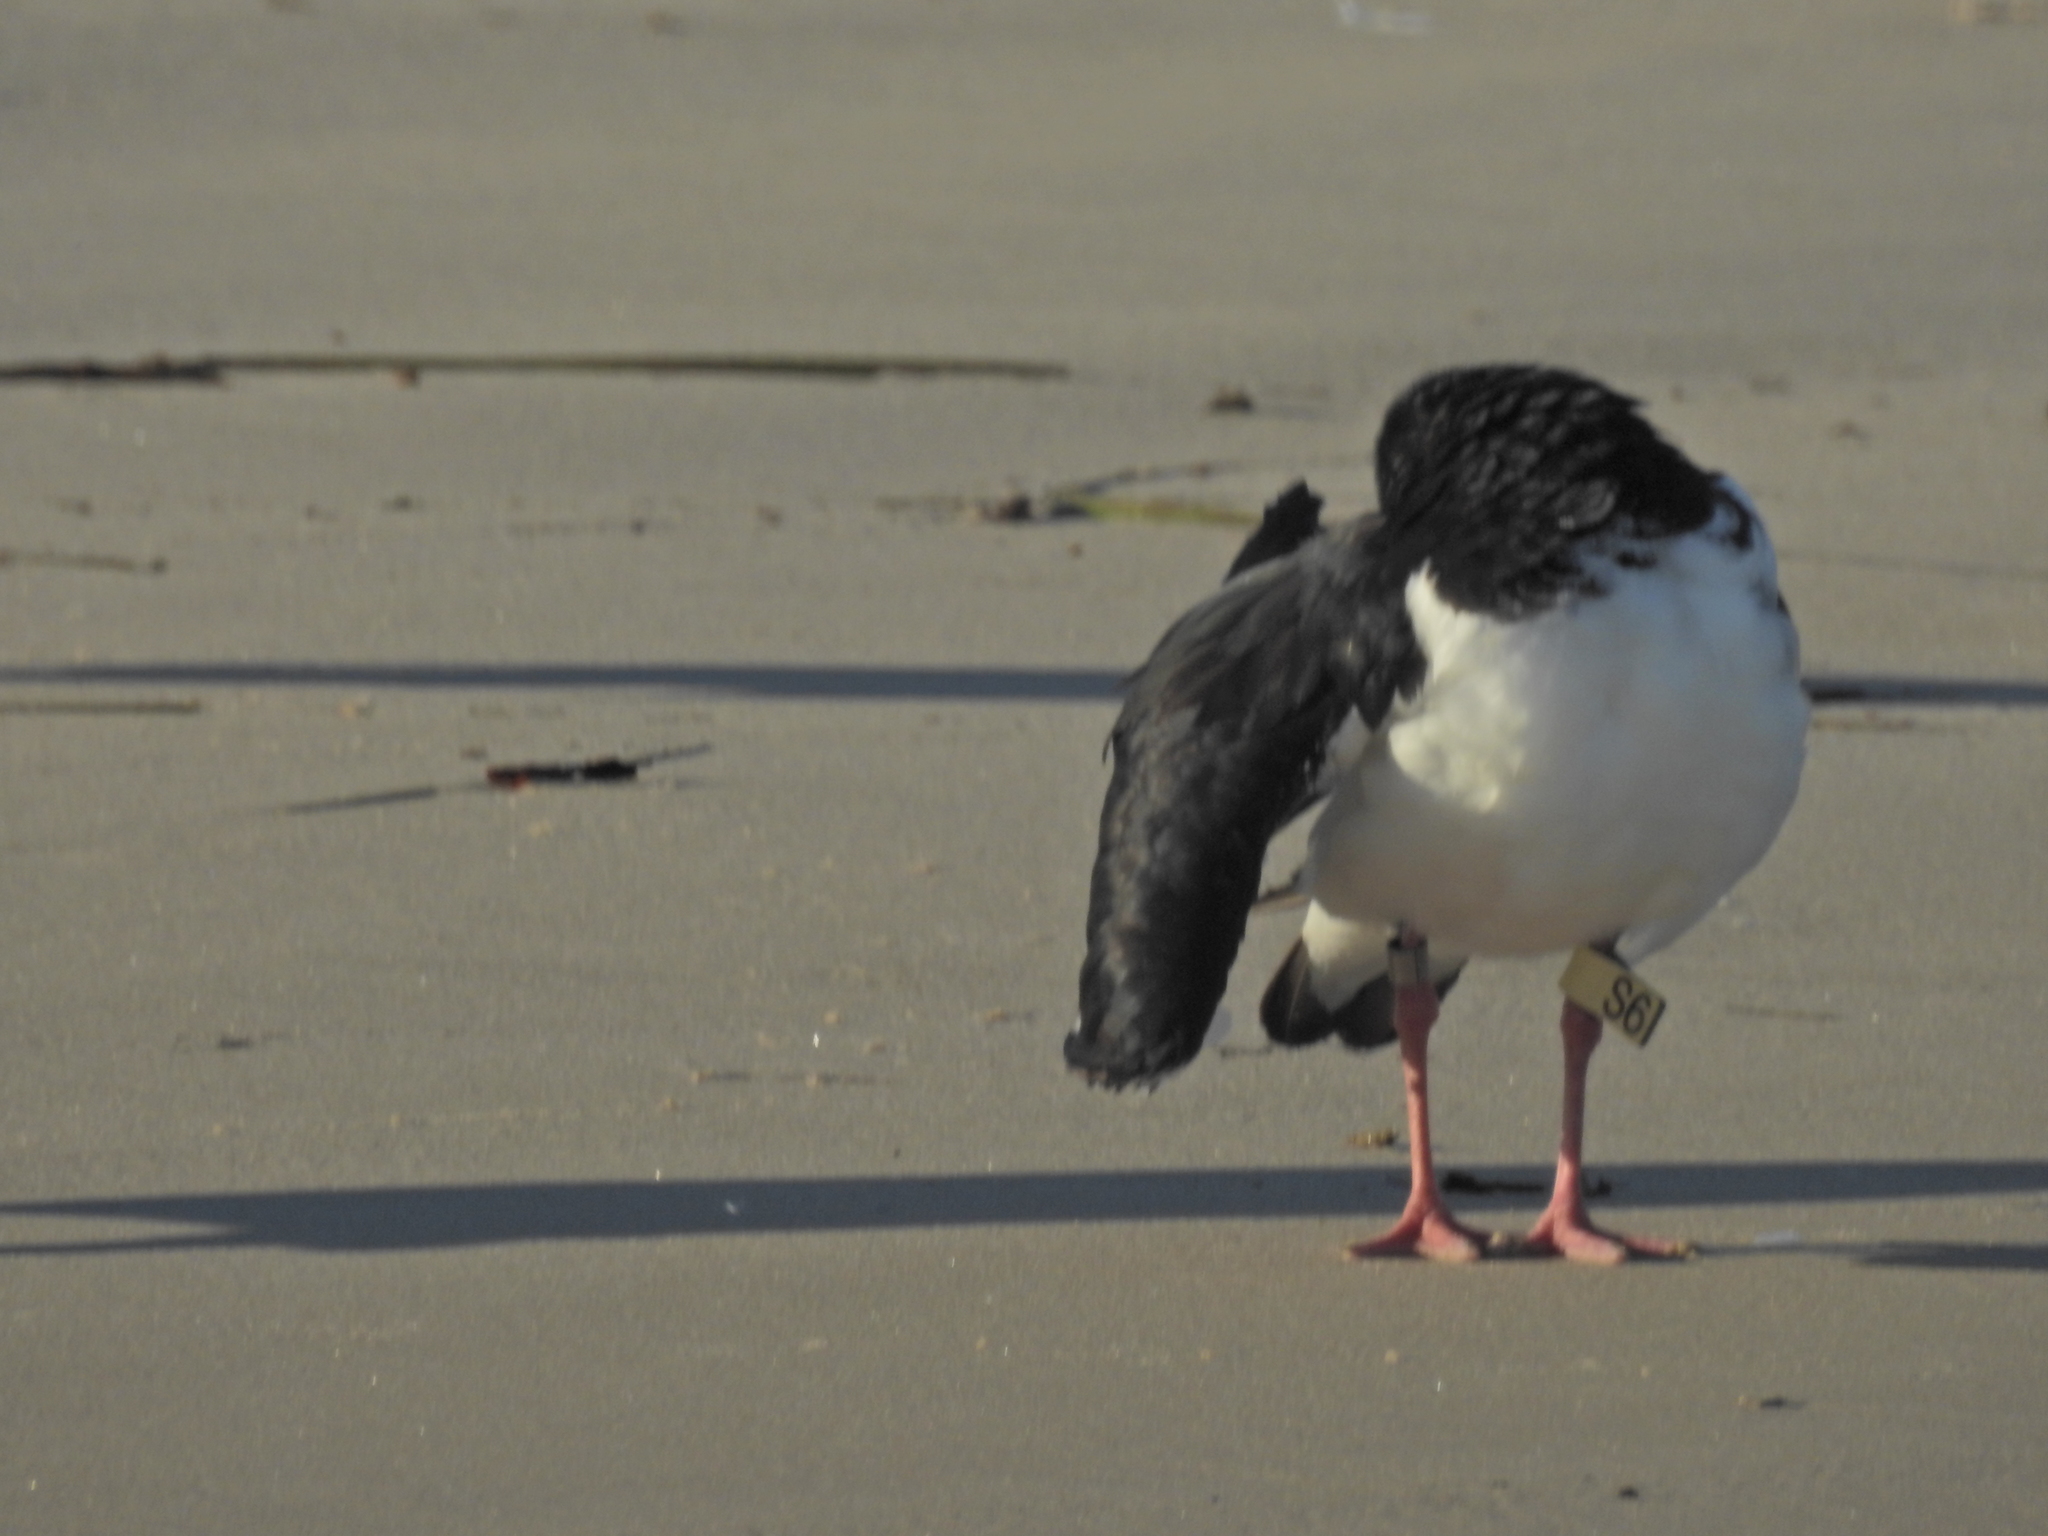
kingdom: Animalia
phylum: Chordata
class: Aves
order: Charadriiformes
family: Haematopodidae
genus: Haematopus
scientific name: Haematopus longirostris
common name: Pied oystercatcher
